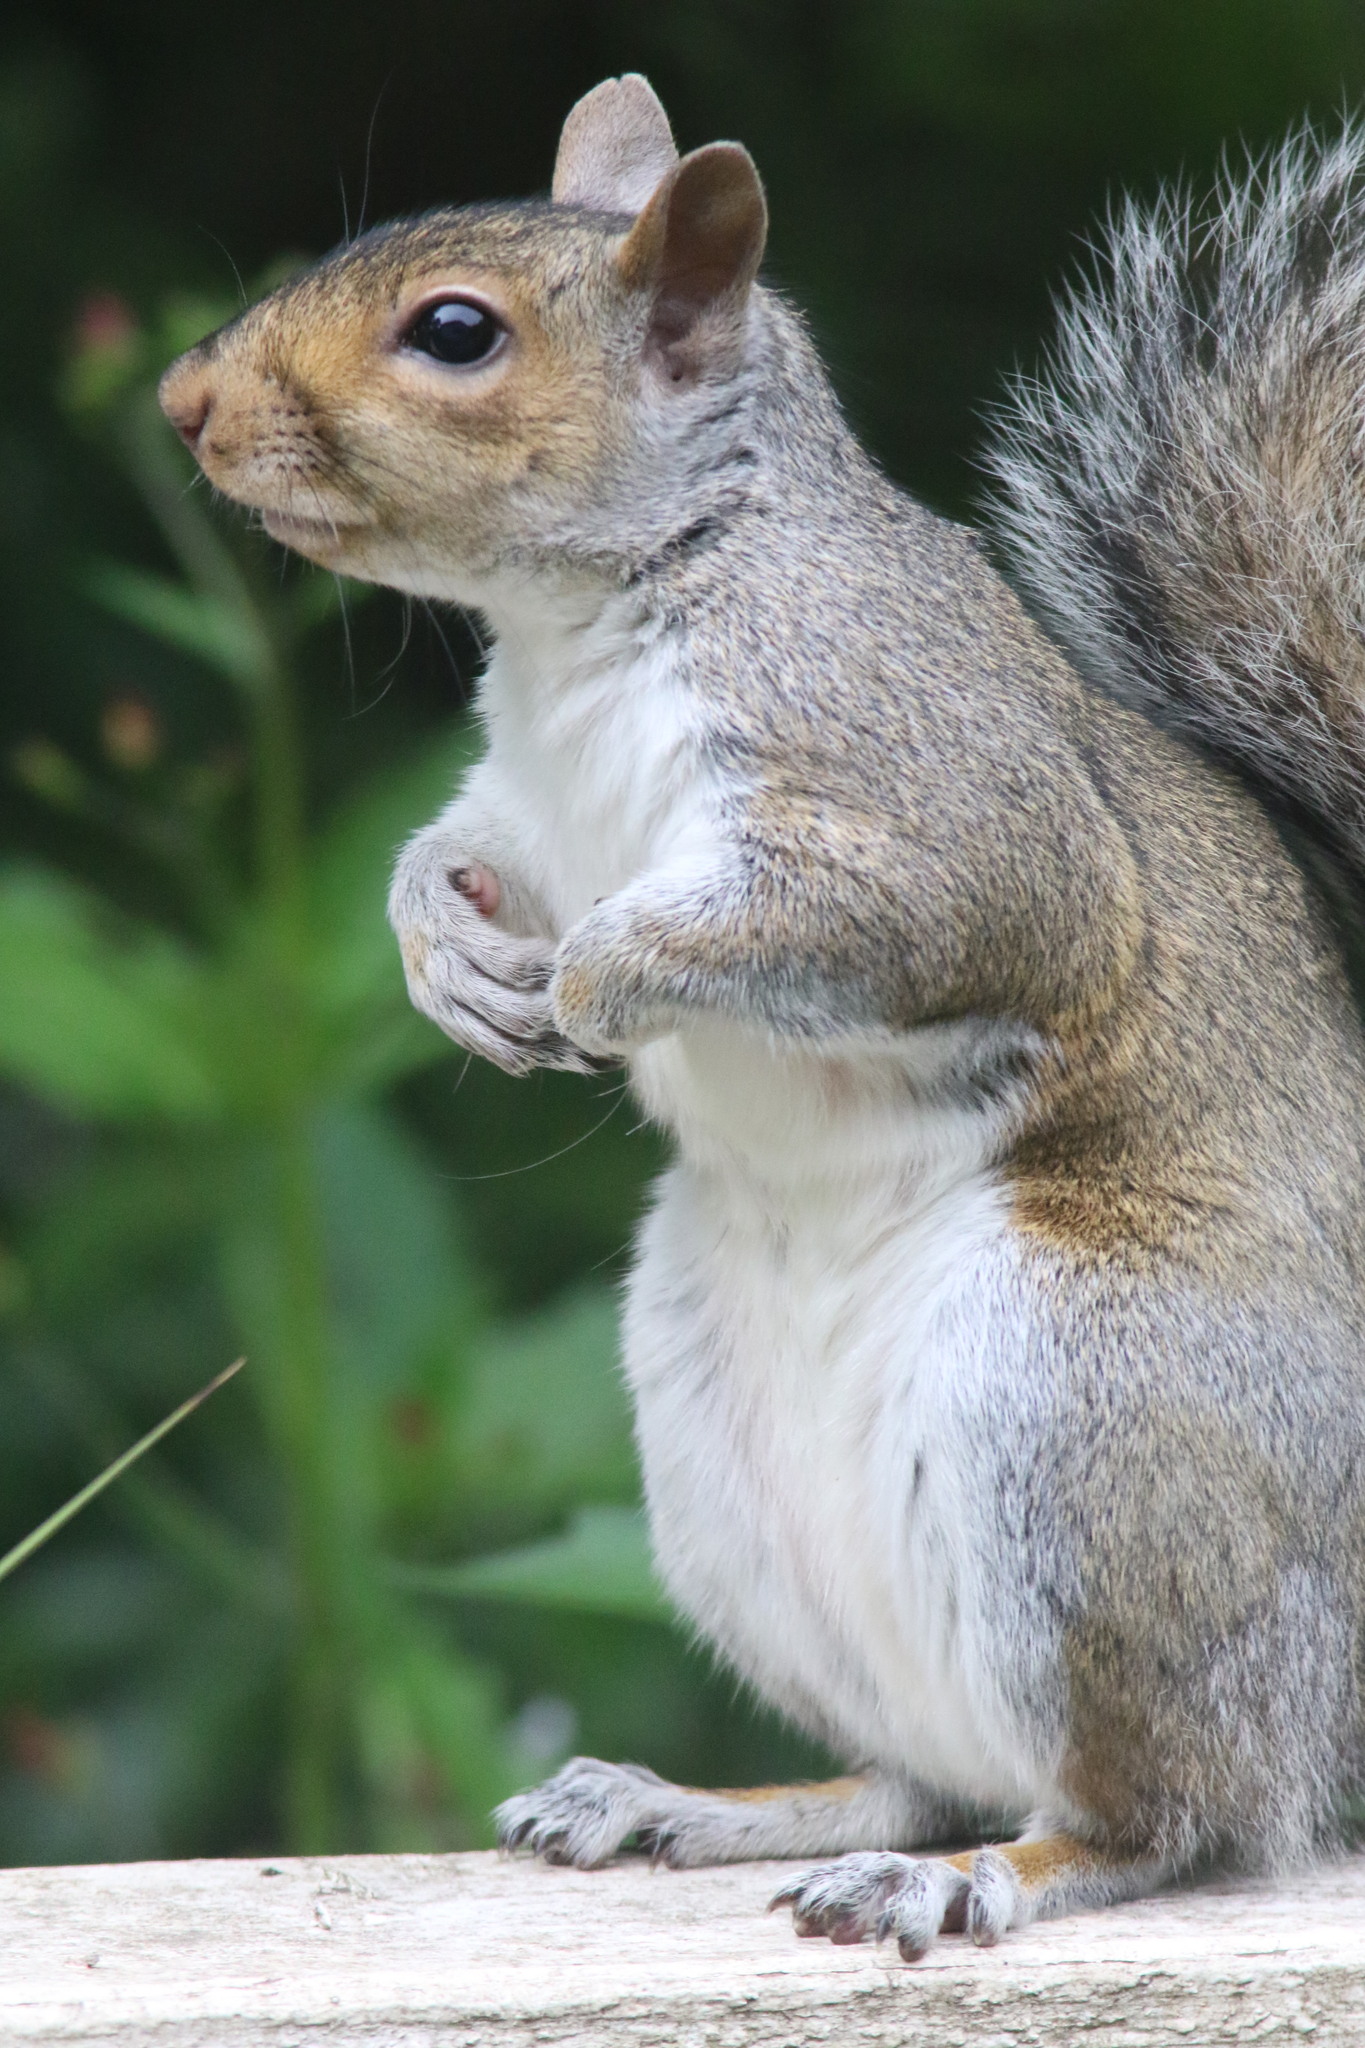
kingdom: Animalia
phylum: Chordata
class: Mammalia
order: Rodentia
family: Sciuridae
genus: Sciurus
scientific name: Sciurus carolinensis
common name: Eastern gray squirrel
